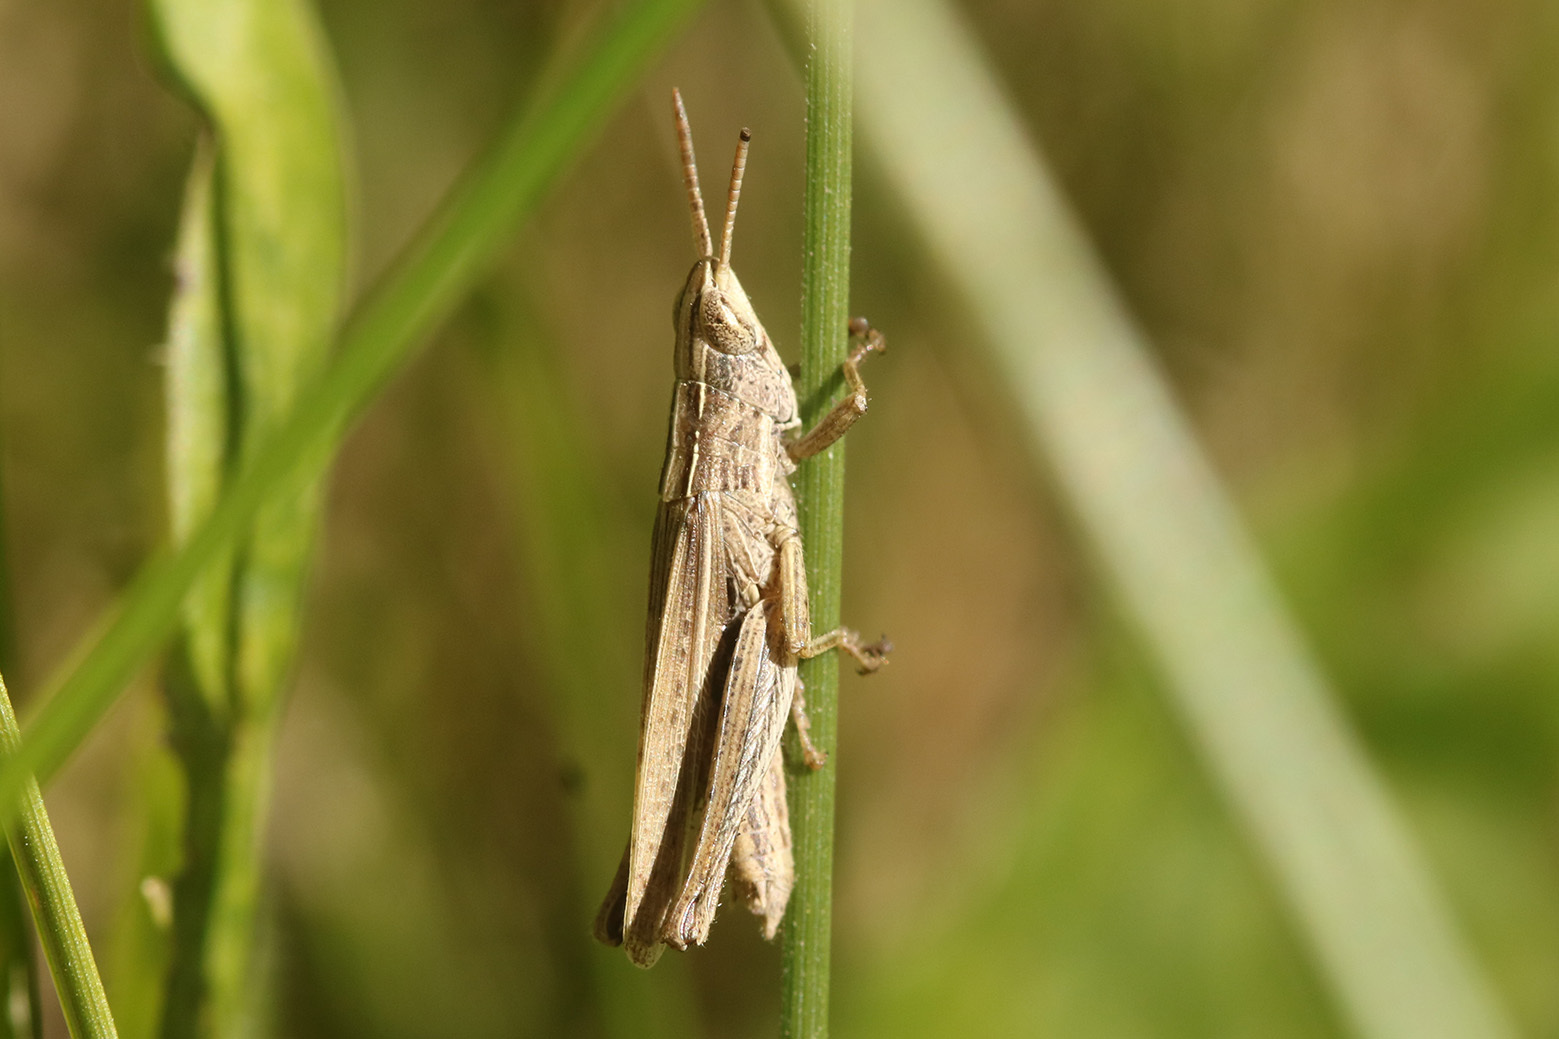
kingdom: Animalia
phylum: Arthropoda
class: Insecta
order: Orthoptera
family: Acrididae
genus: Laplatacris
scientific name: Laplatacris dispar
